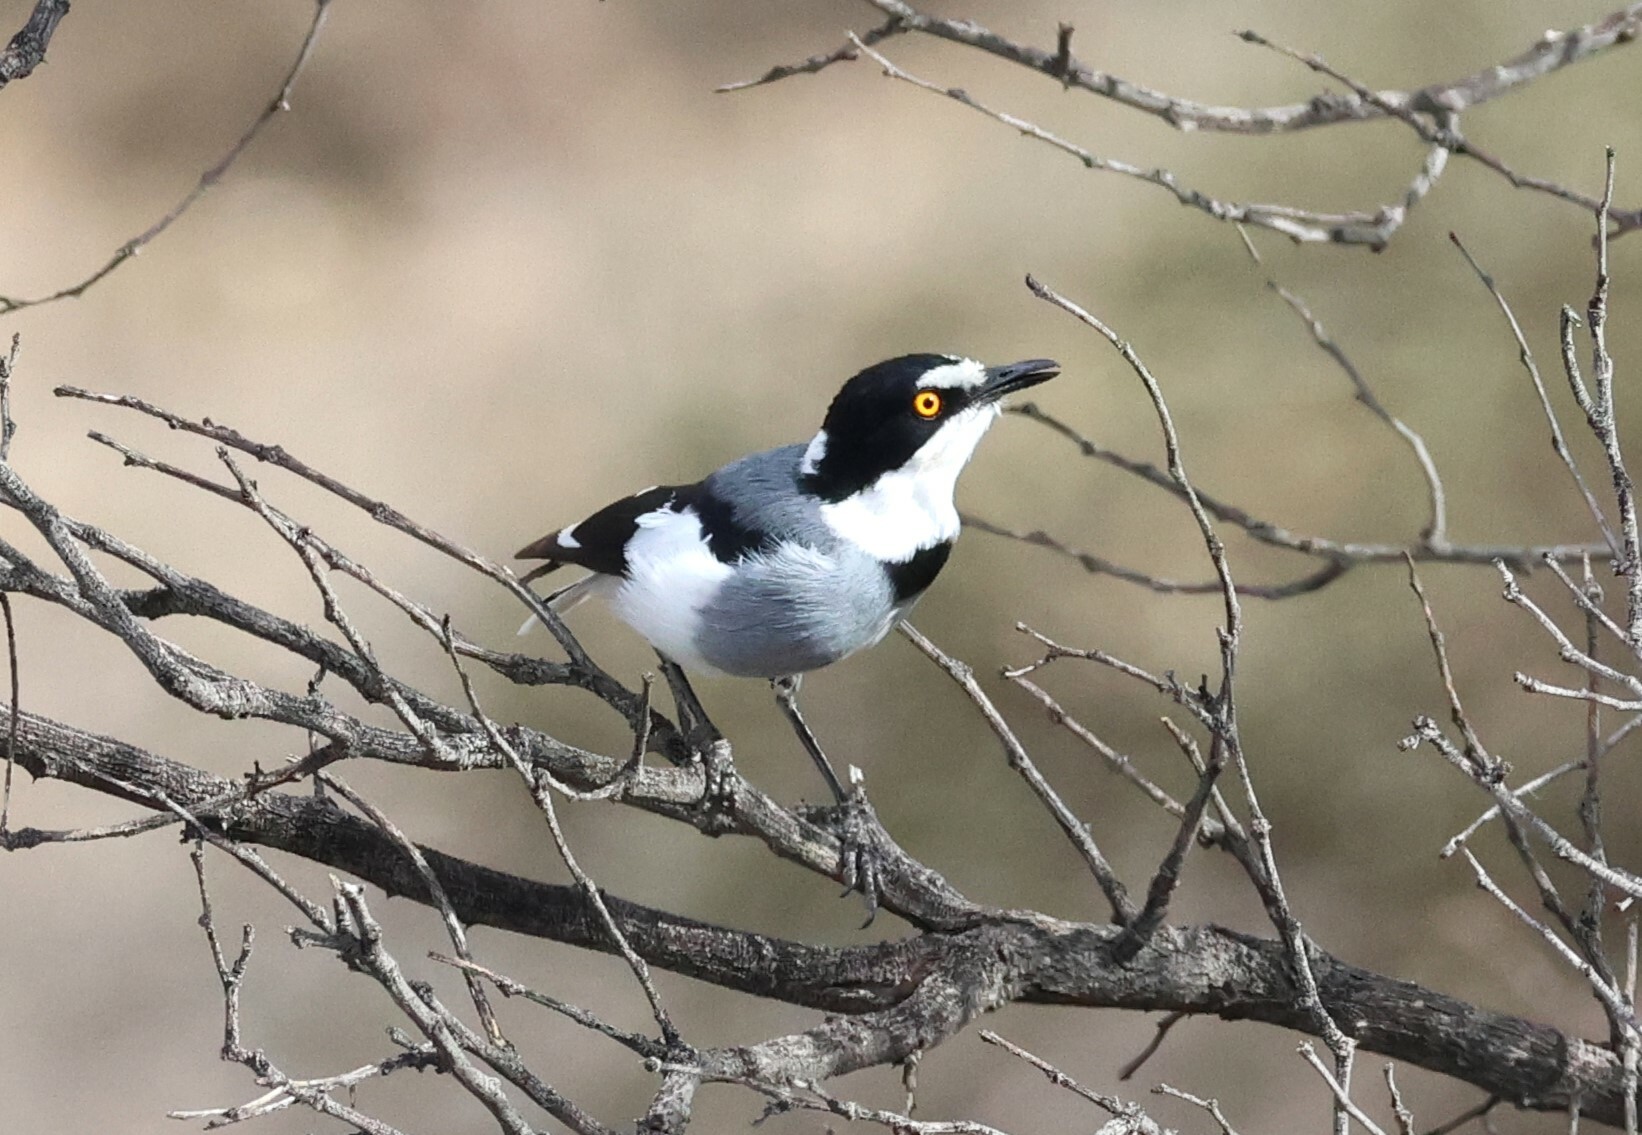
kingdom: Animalia
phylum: Chordata
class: Aves
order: Passeriformes
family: Platysteiridae
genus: Lanioturdus
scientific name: Lanioturdus torquatus
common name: White-tailed shrike
